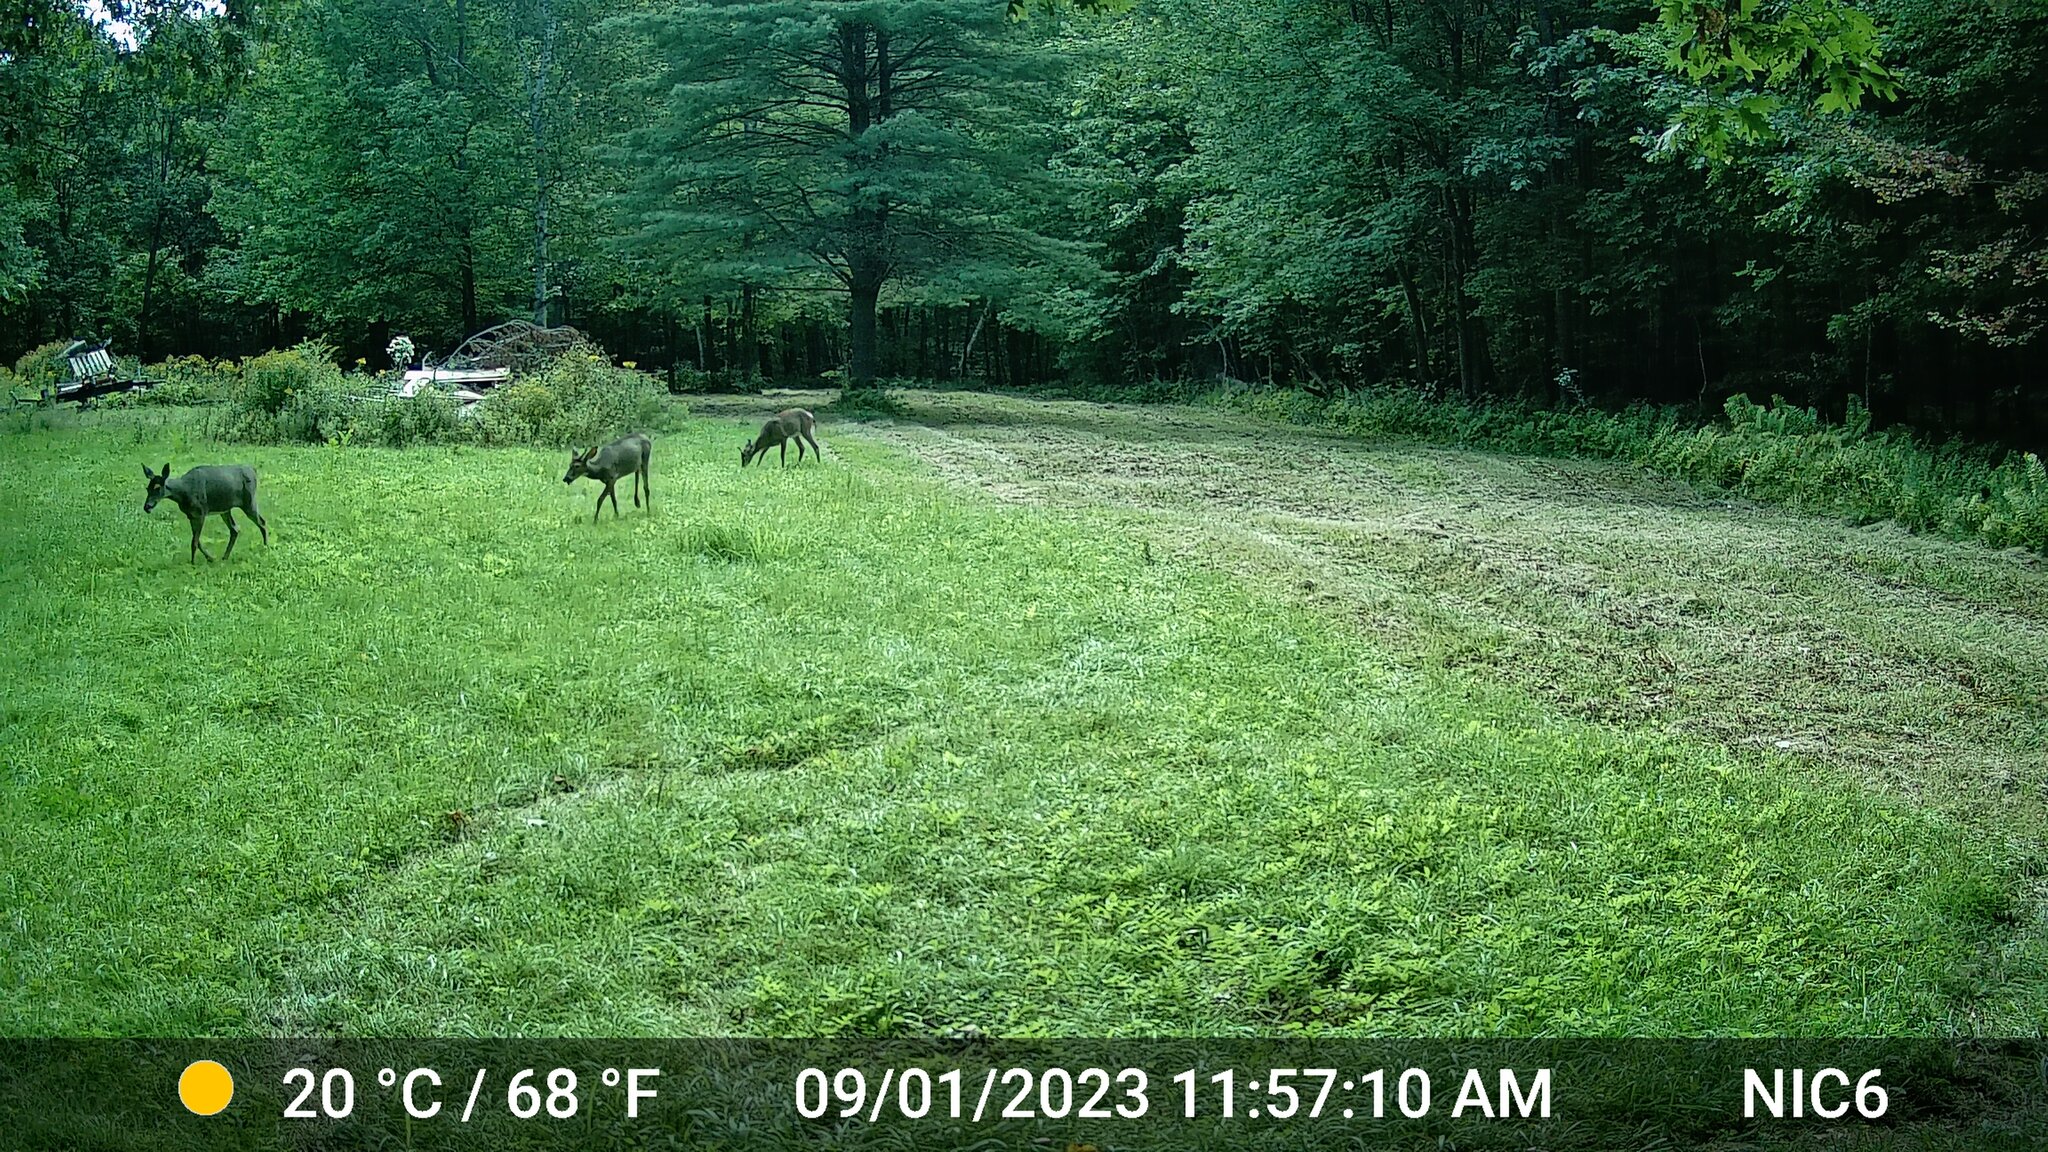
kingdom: Animalia
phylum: Chordata
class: Mammalia
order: Artiodactyla
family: Cervidae
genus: Odocoileus
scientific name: Odocoileus virginianus
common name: White-tailed deer
